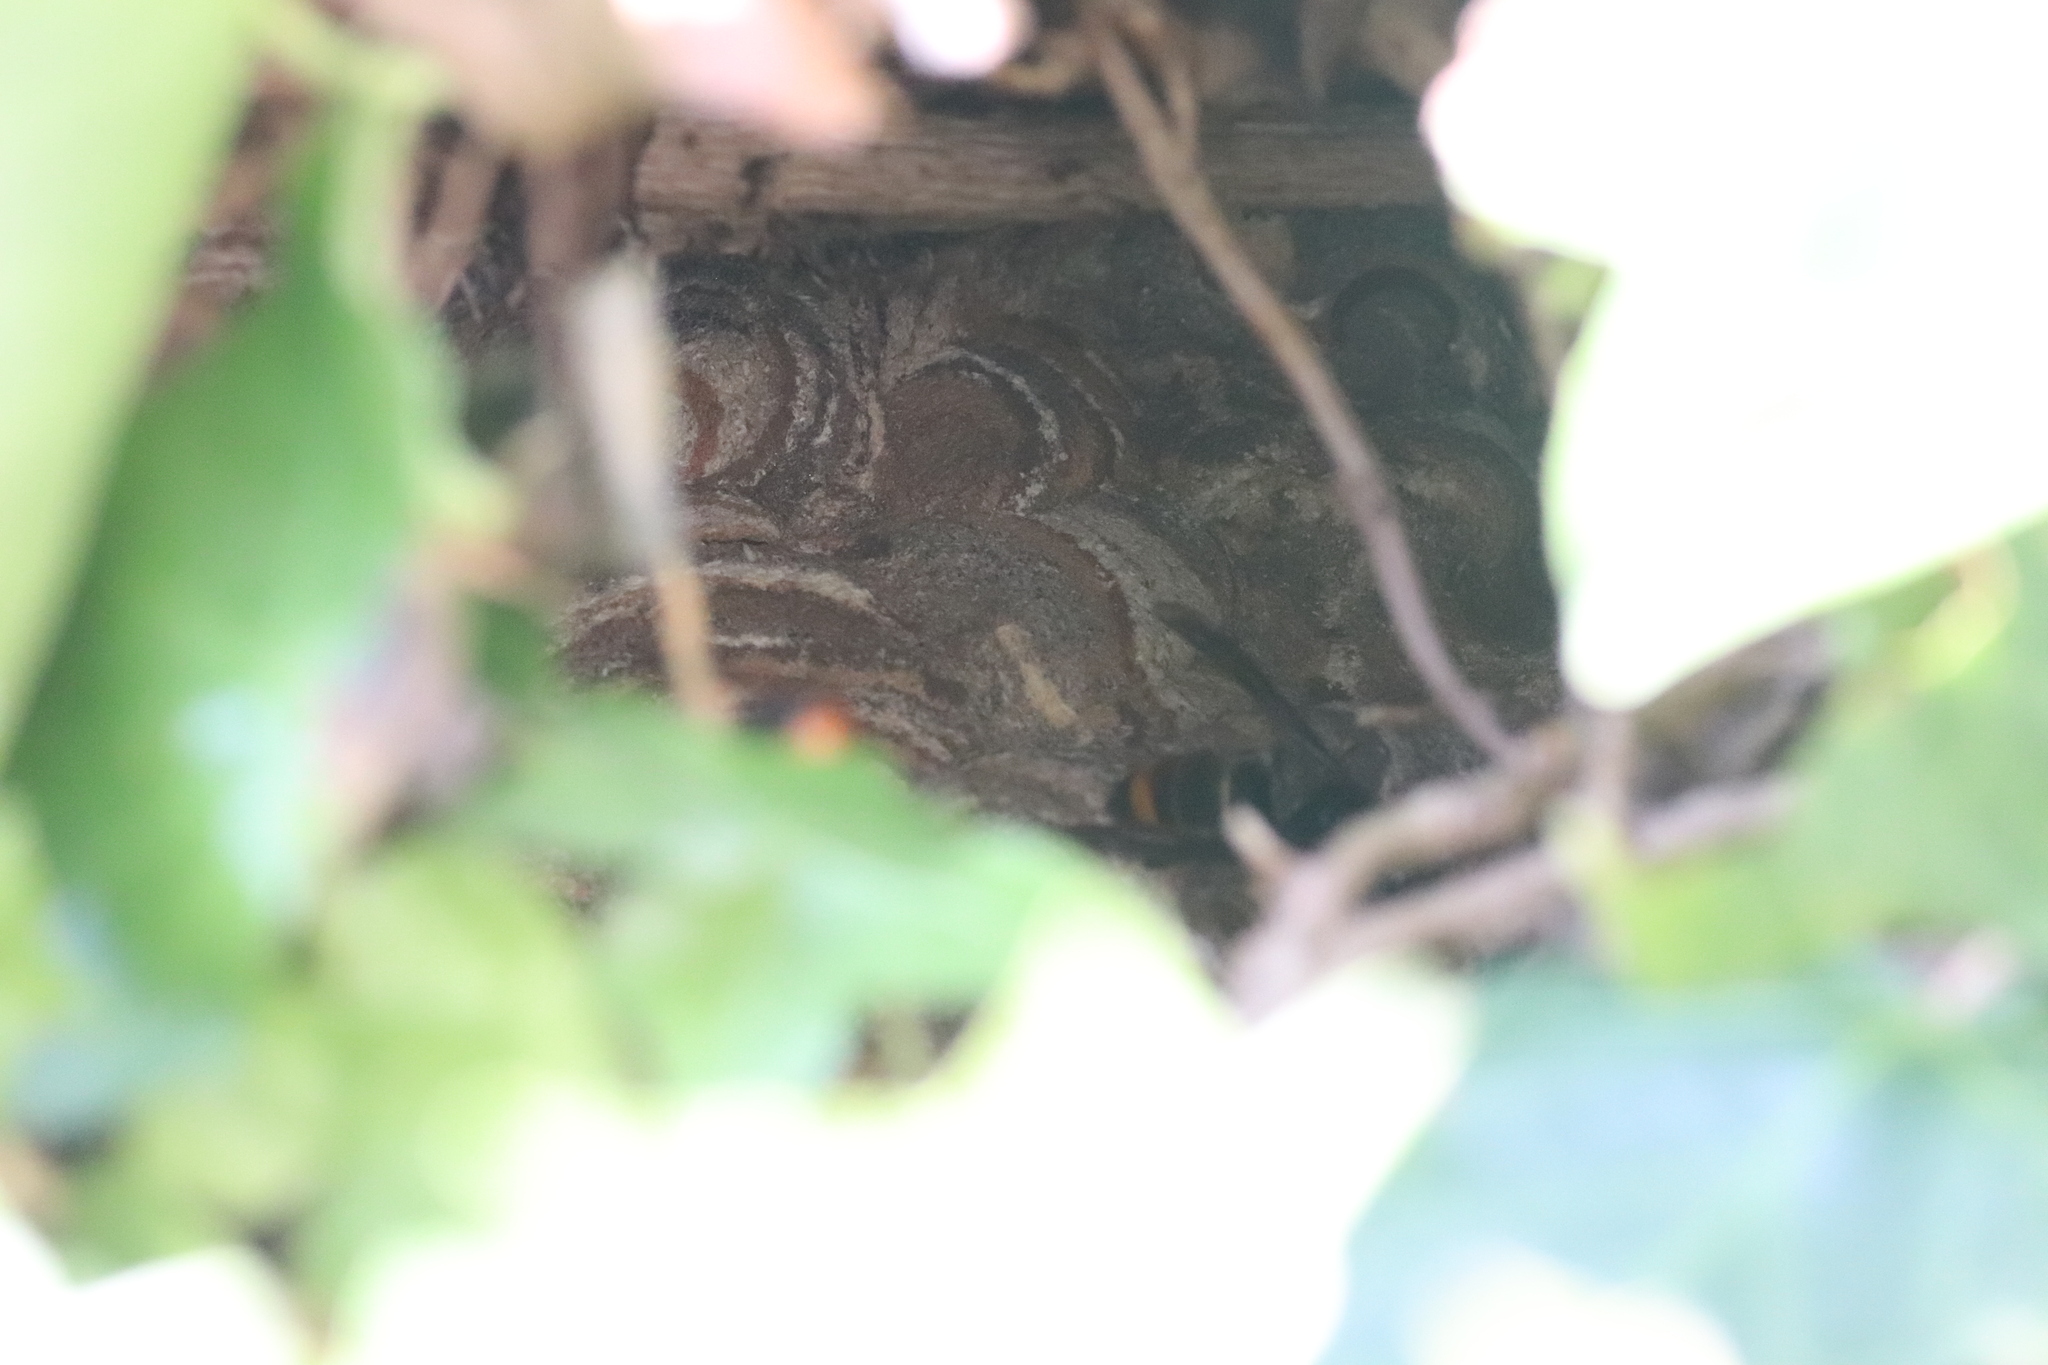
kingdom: Animalia
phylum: Arthropoda
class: Insecta
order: Hymenoptera
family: Vespidae
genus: Vespa
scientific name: Vespa velutina
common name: Asian hornet
